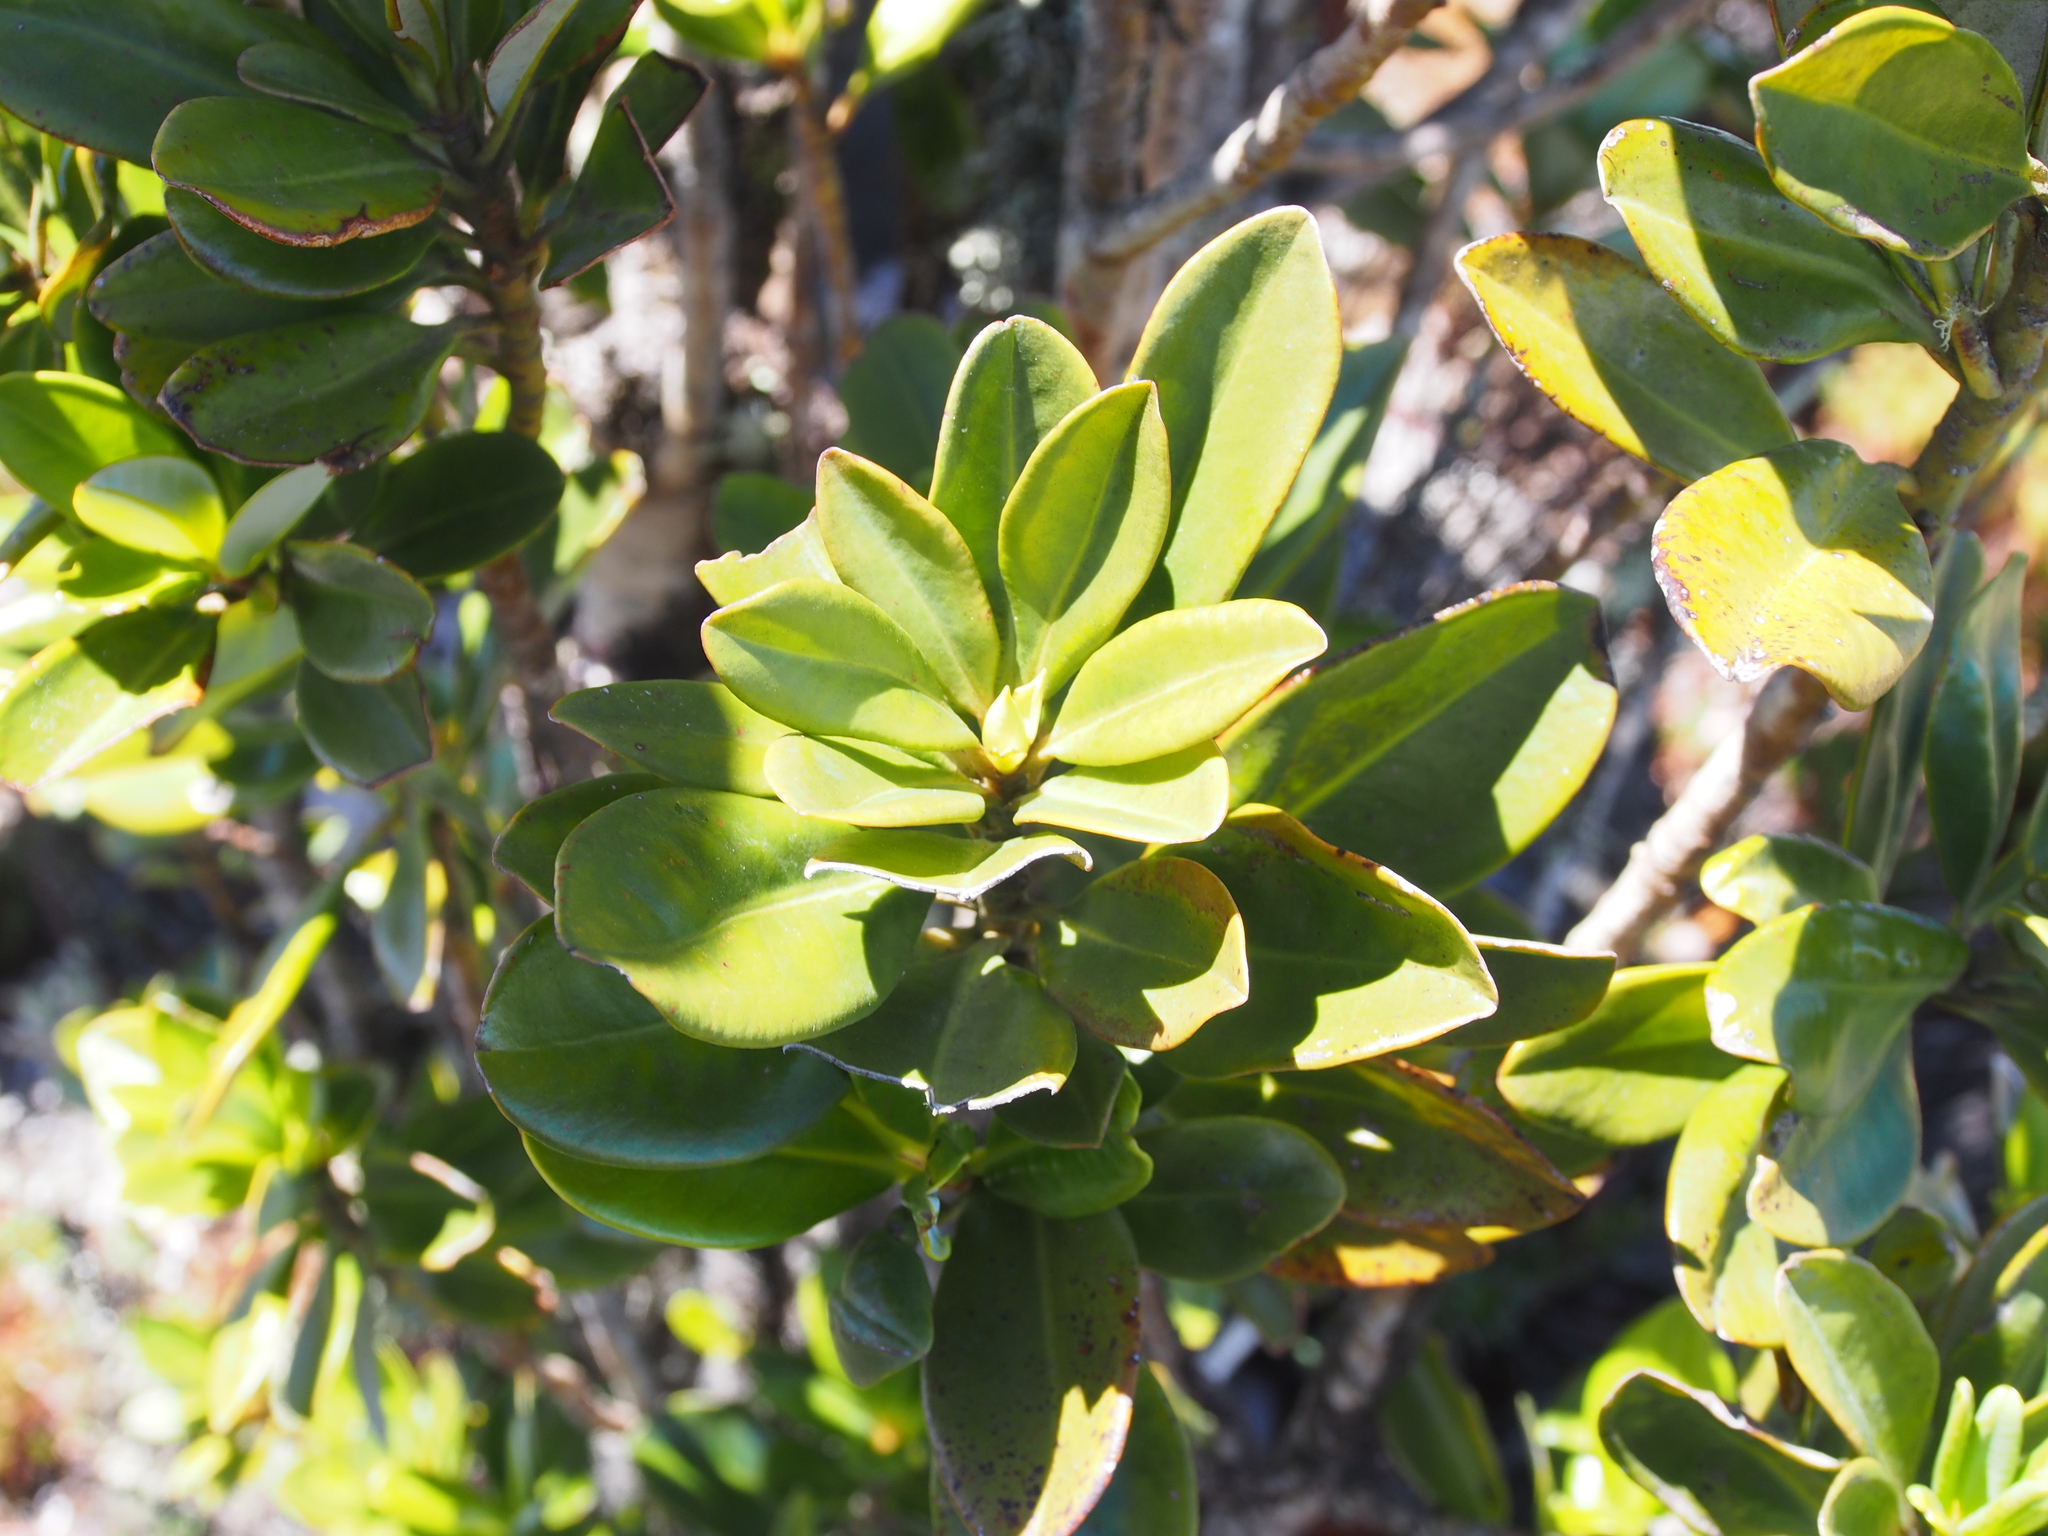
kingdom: Plantae
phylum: Tracheophyta
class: Magnoliopsida
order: Canellales
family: Winteraceae
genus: Drimys
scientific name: Drimys granadensis
